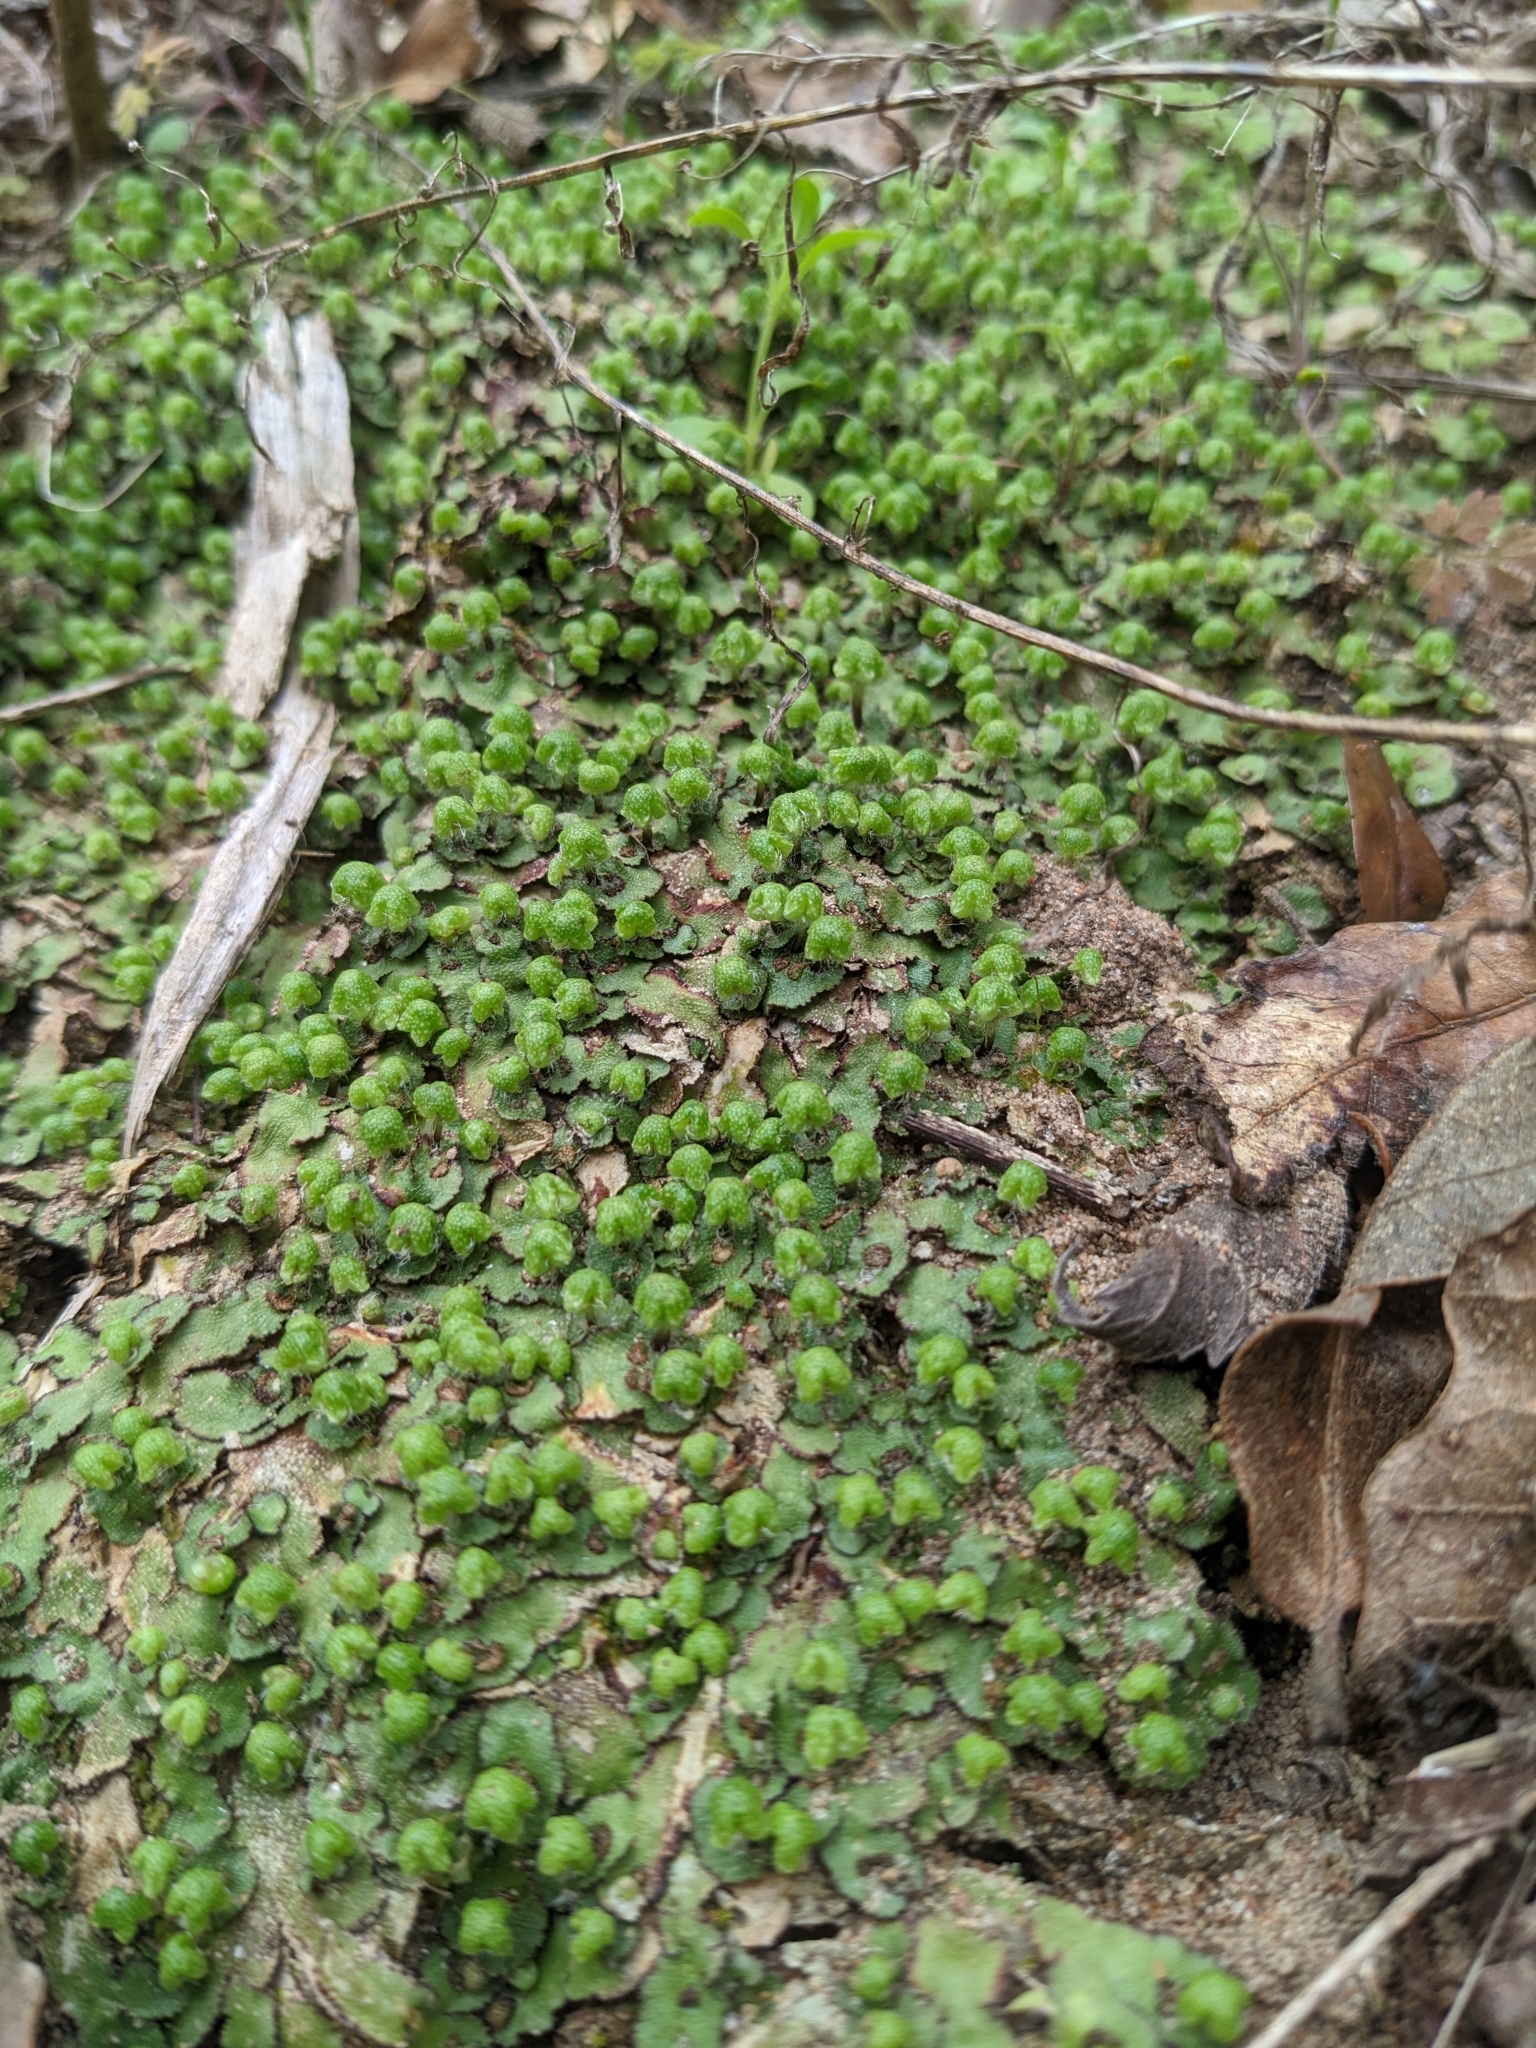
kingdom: Plantae
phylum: Marchantiophyta
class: Marchantiopsida
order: Marchantiales
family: Aytoniaceae
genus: Reboulia
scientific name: Reboulia hemisphaerica
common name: Purple-margined liverwort
